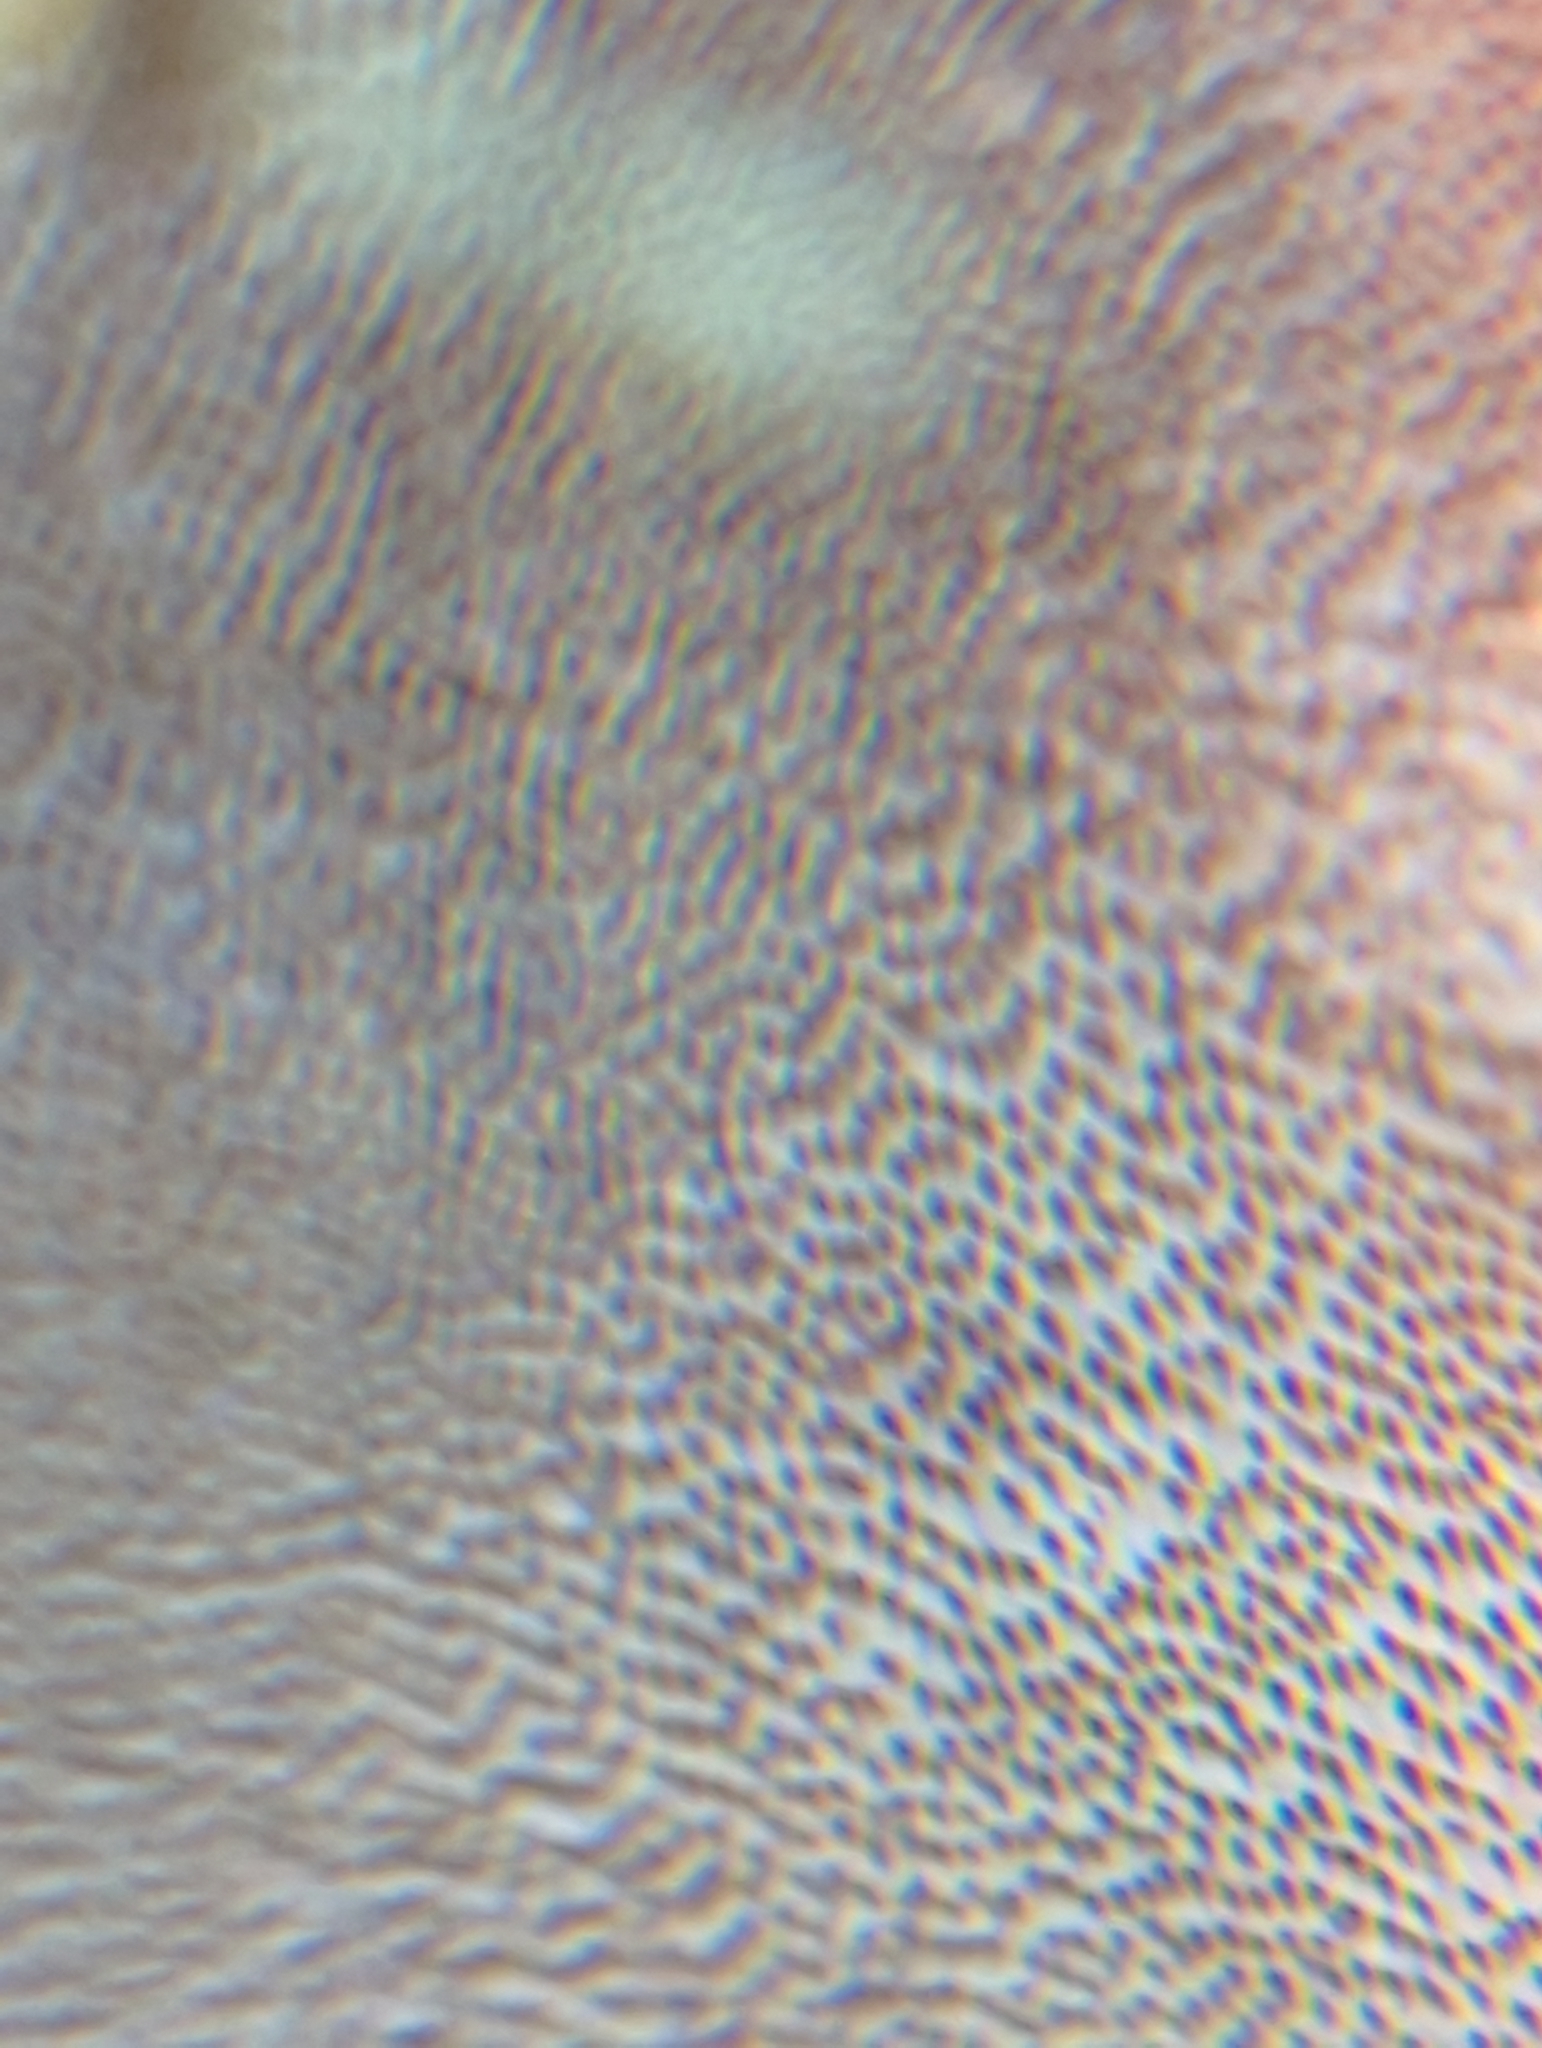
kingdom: Fungi
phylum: Basidiomycota
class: Agaricomycetes
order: Hymenochaetales
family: Hymenochaetaceae
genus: Phellinus
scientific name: Phellinus betulinus
